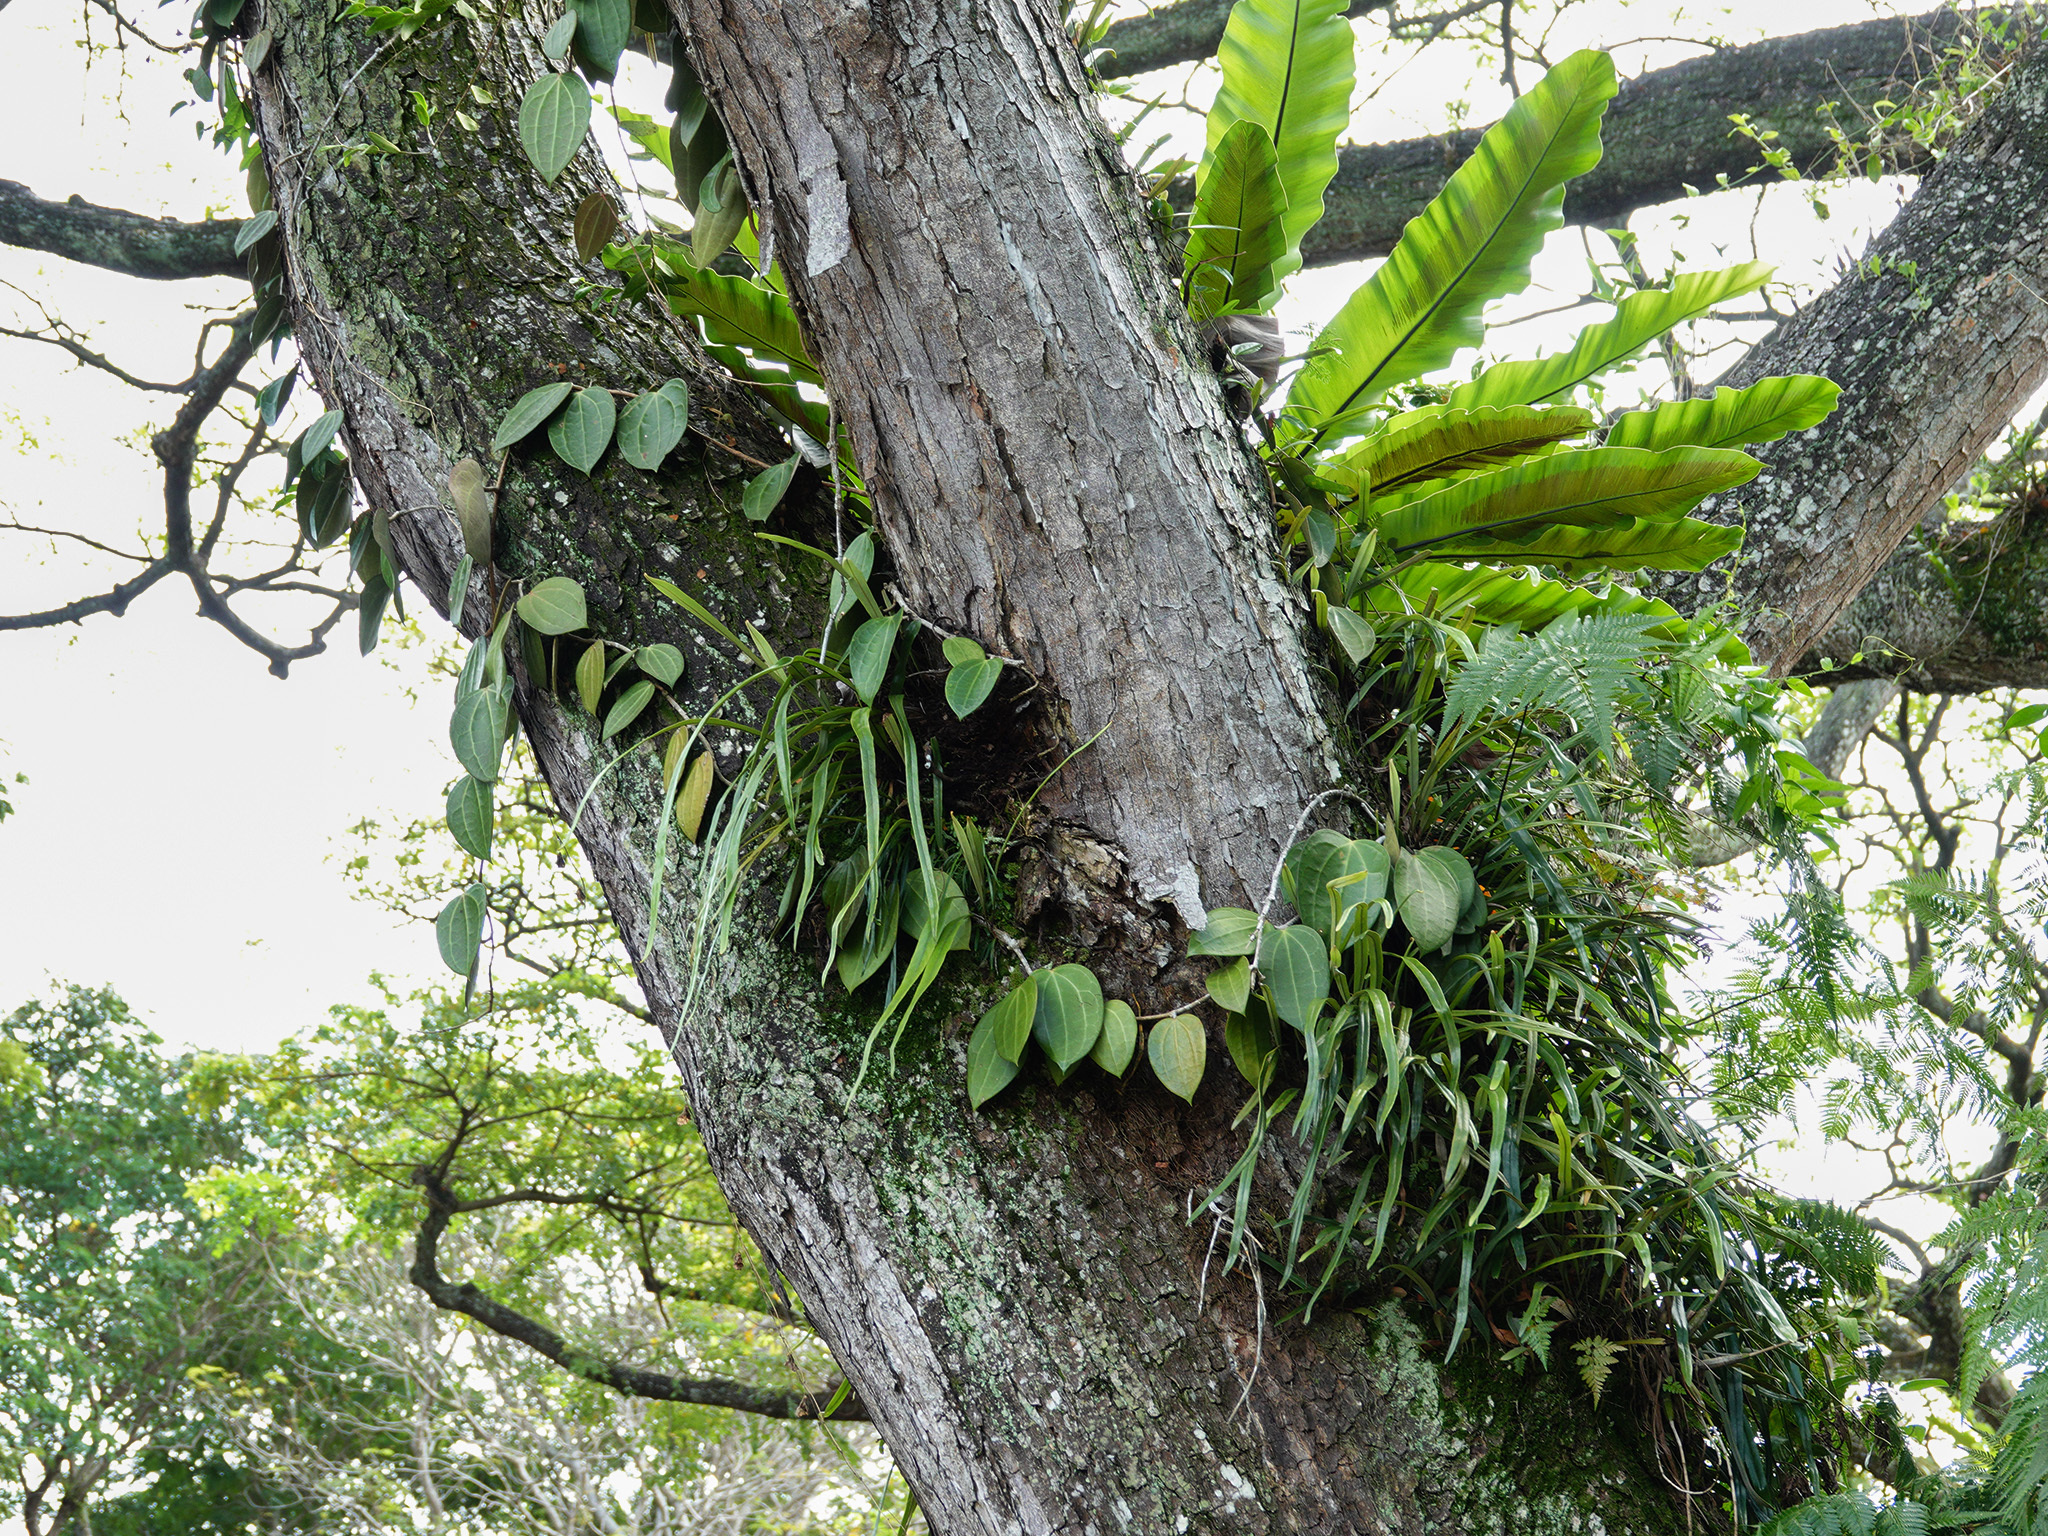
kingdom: Plantae
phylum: Tracheophyta
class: Magnoliopsida
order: Gentianales
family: Apocynaceae
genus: Hoya
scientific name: Hoya latifolia
